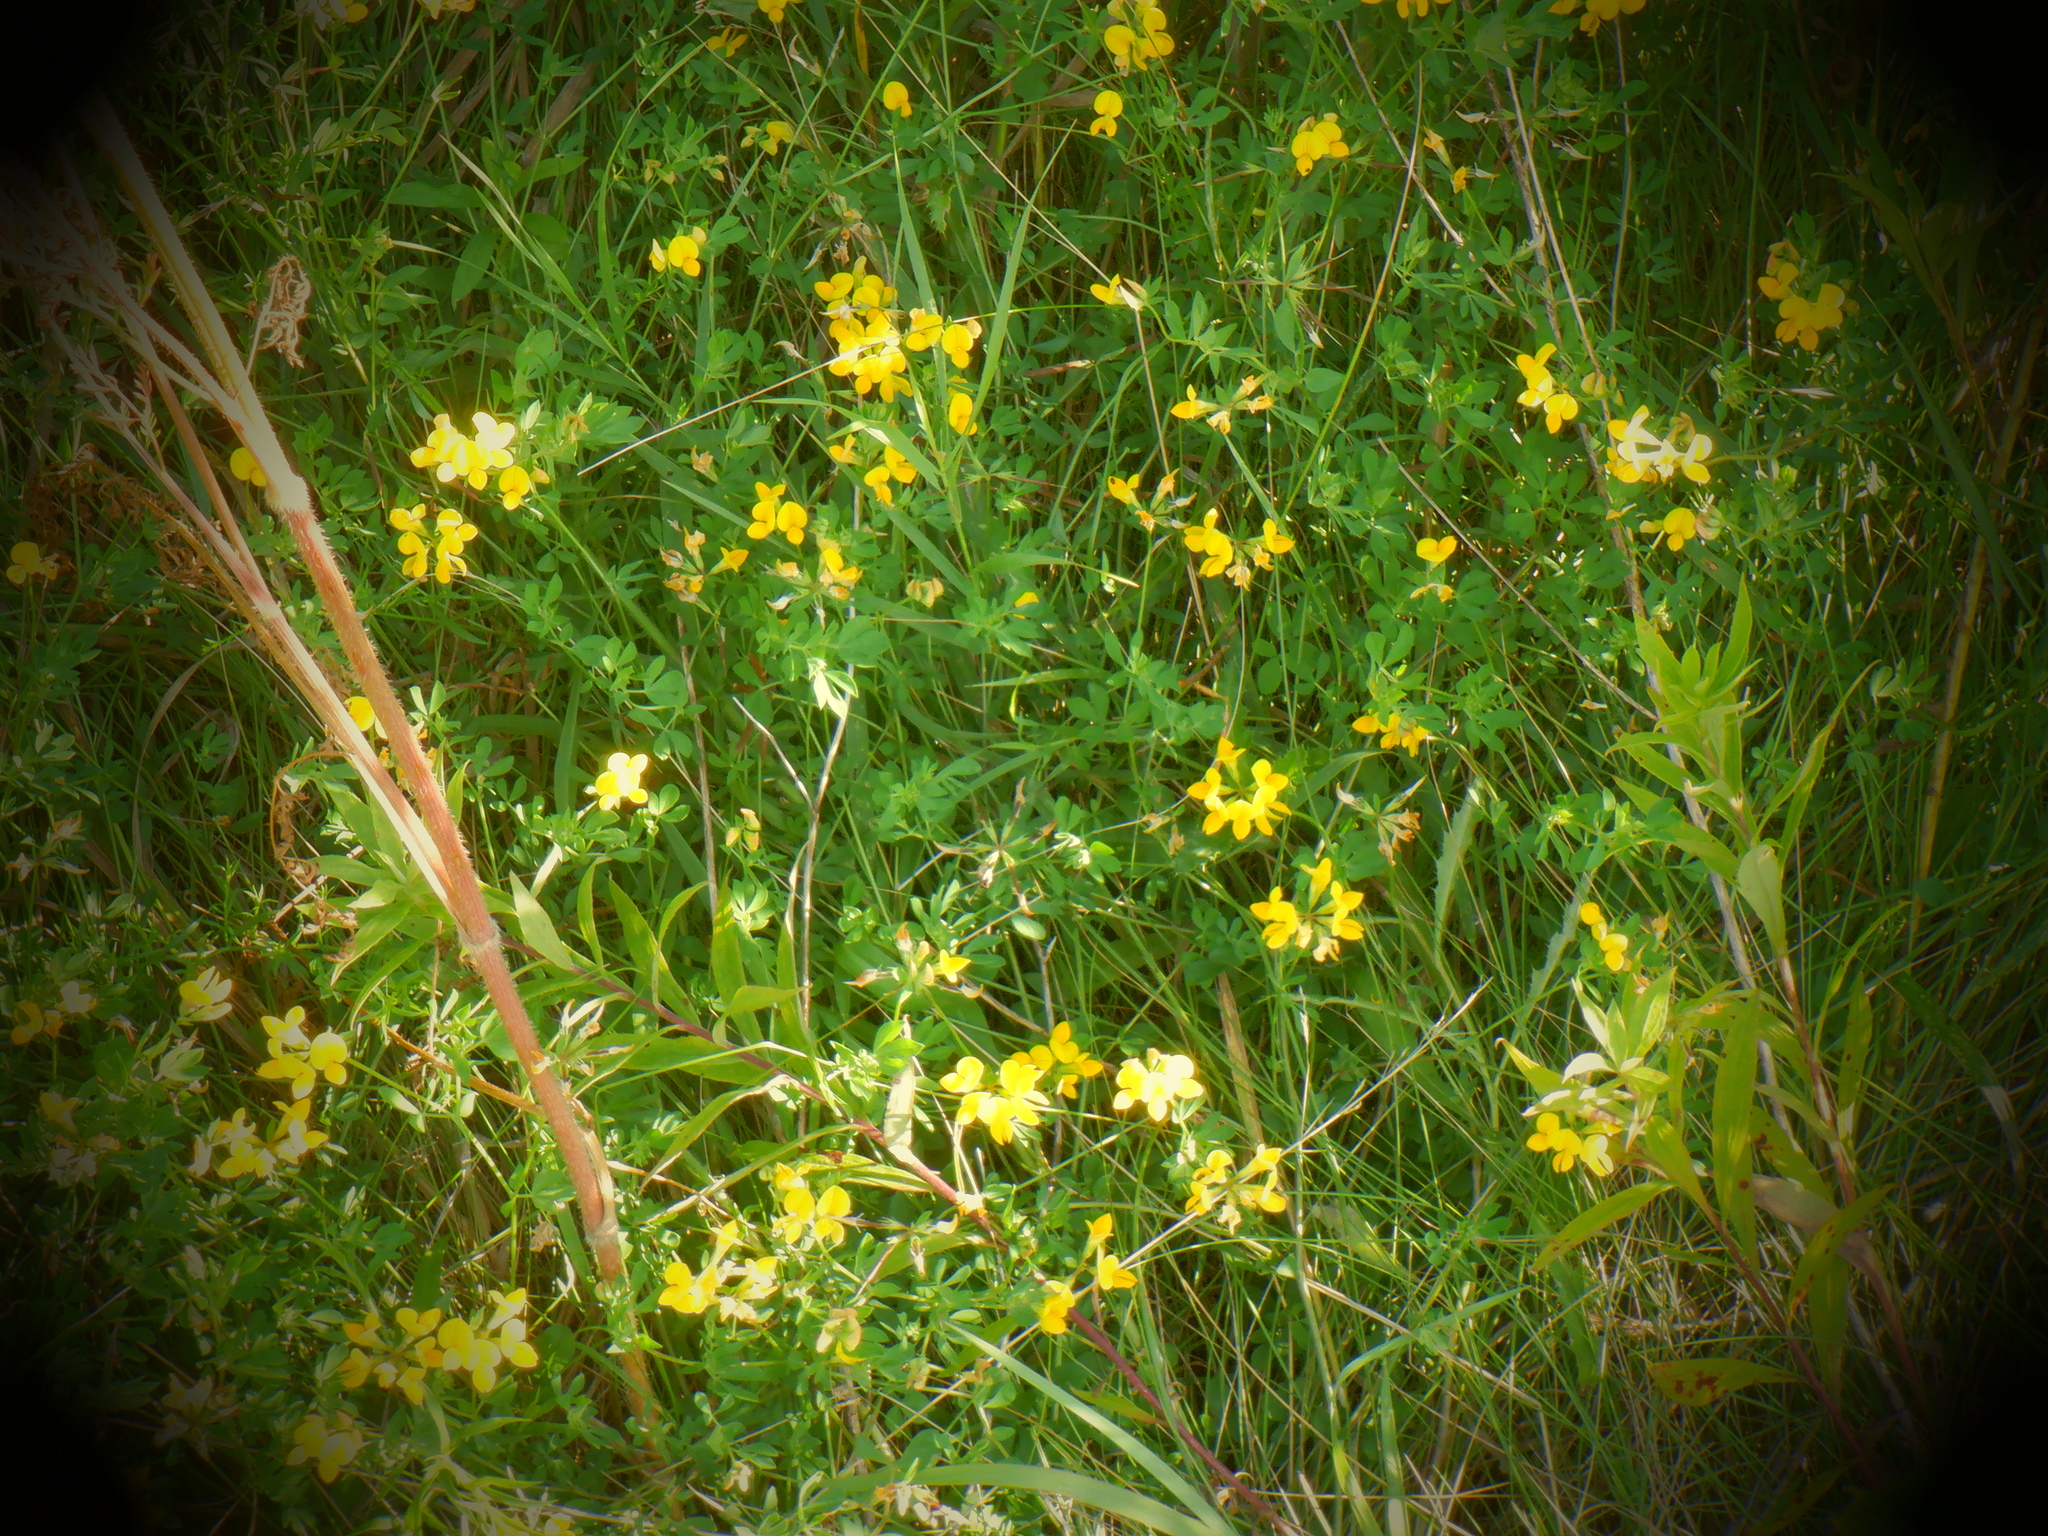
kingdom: Plantae
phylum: Tracheophyta
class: Magnoliopsida
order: Fabales
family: Fabaceae
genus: Lotus
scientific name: Lotus corniculatus
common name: Common bird's-foot-trefoil
